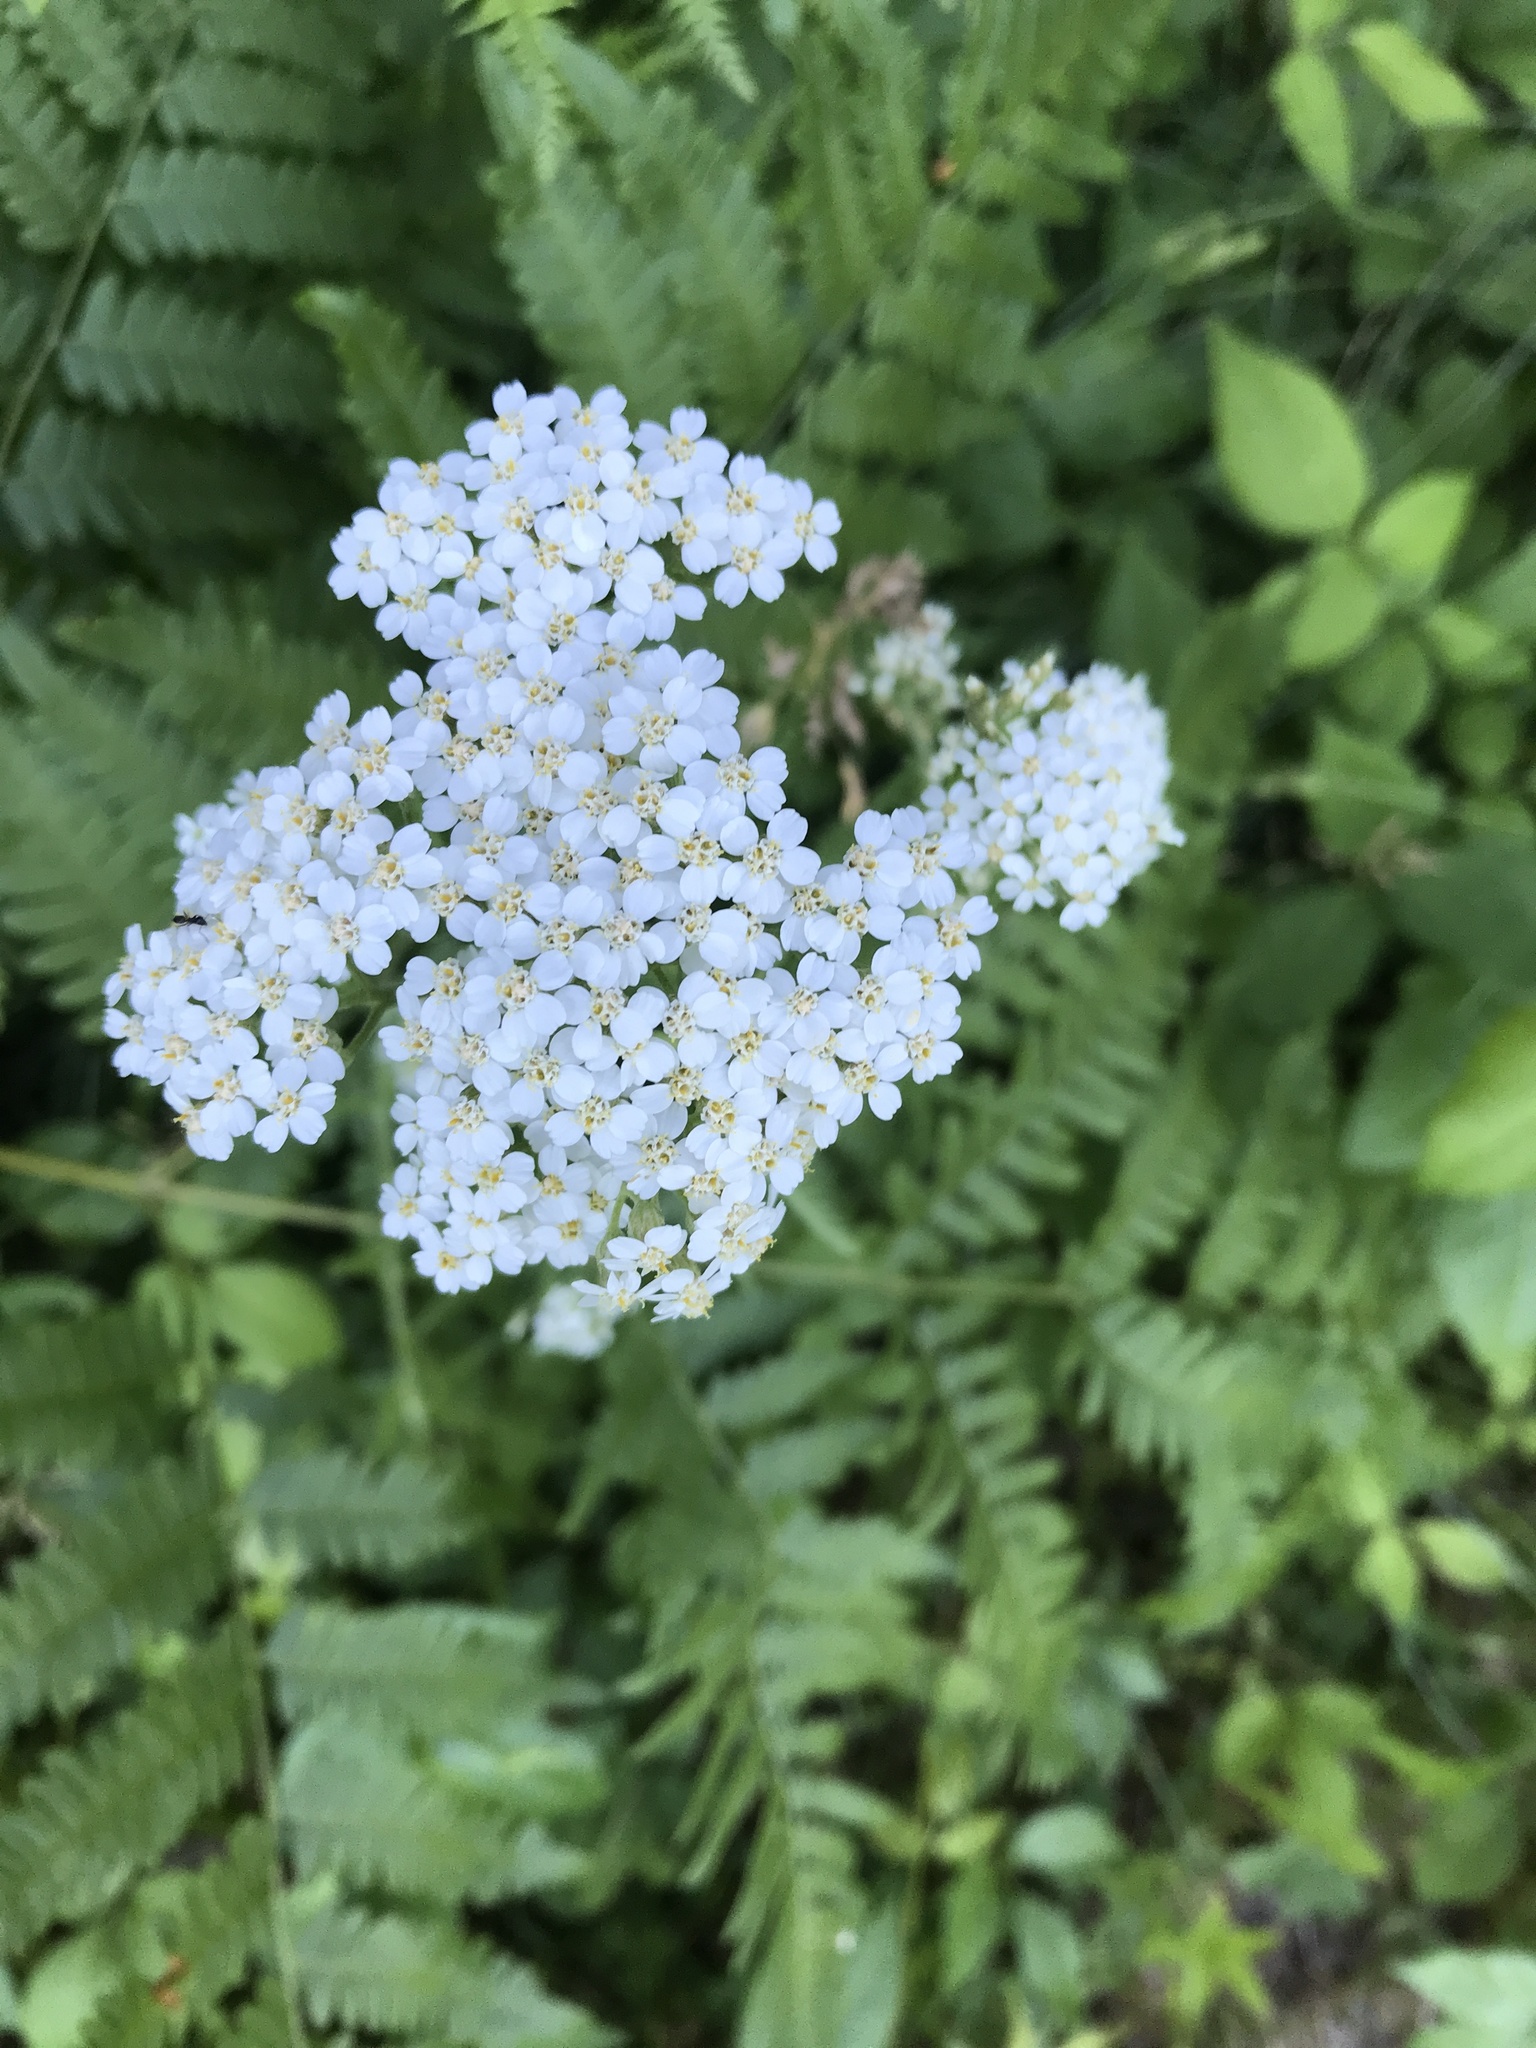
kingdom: Plantae
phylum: Tracheophyta
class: Magnoliopsida
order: Asterales
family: Asteraceae
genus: Achillea
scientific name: Achillea millefolium
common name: Yarrow
